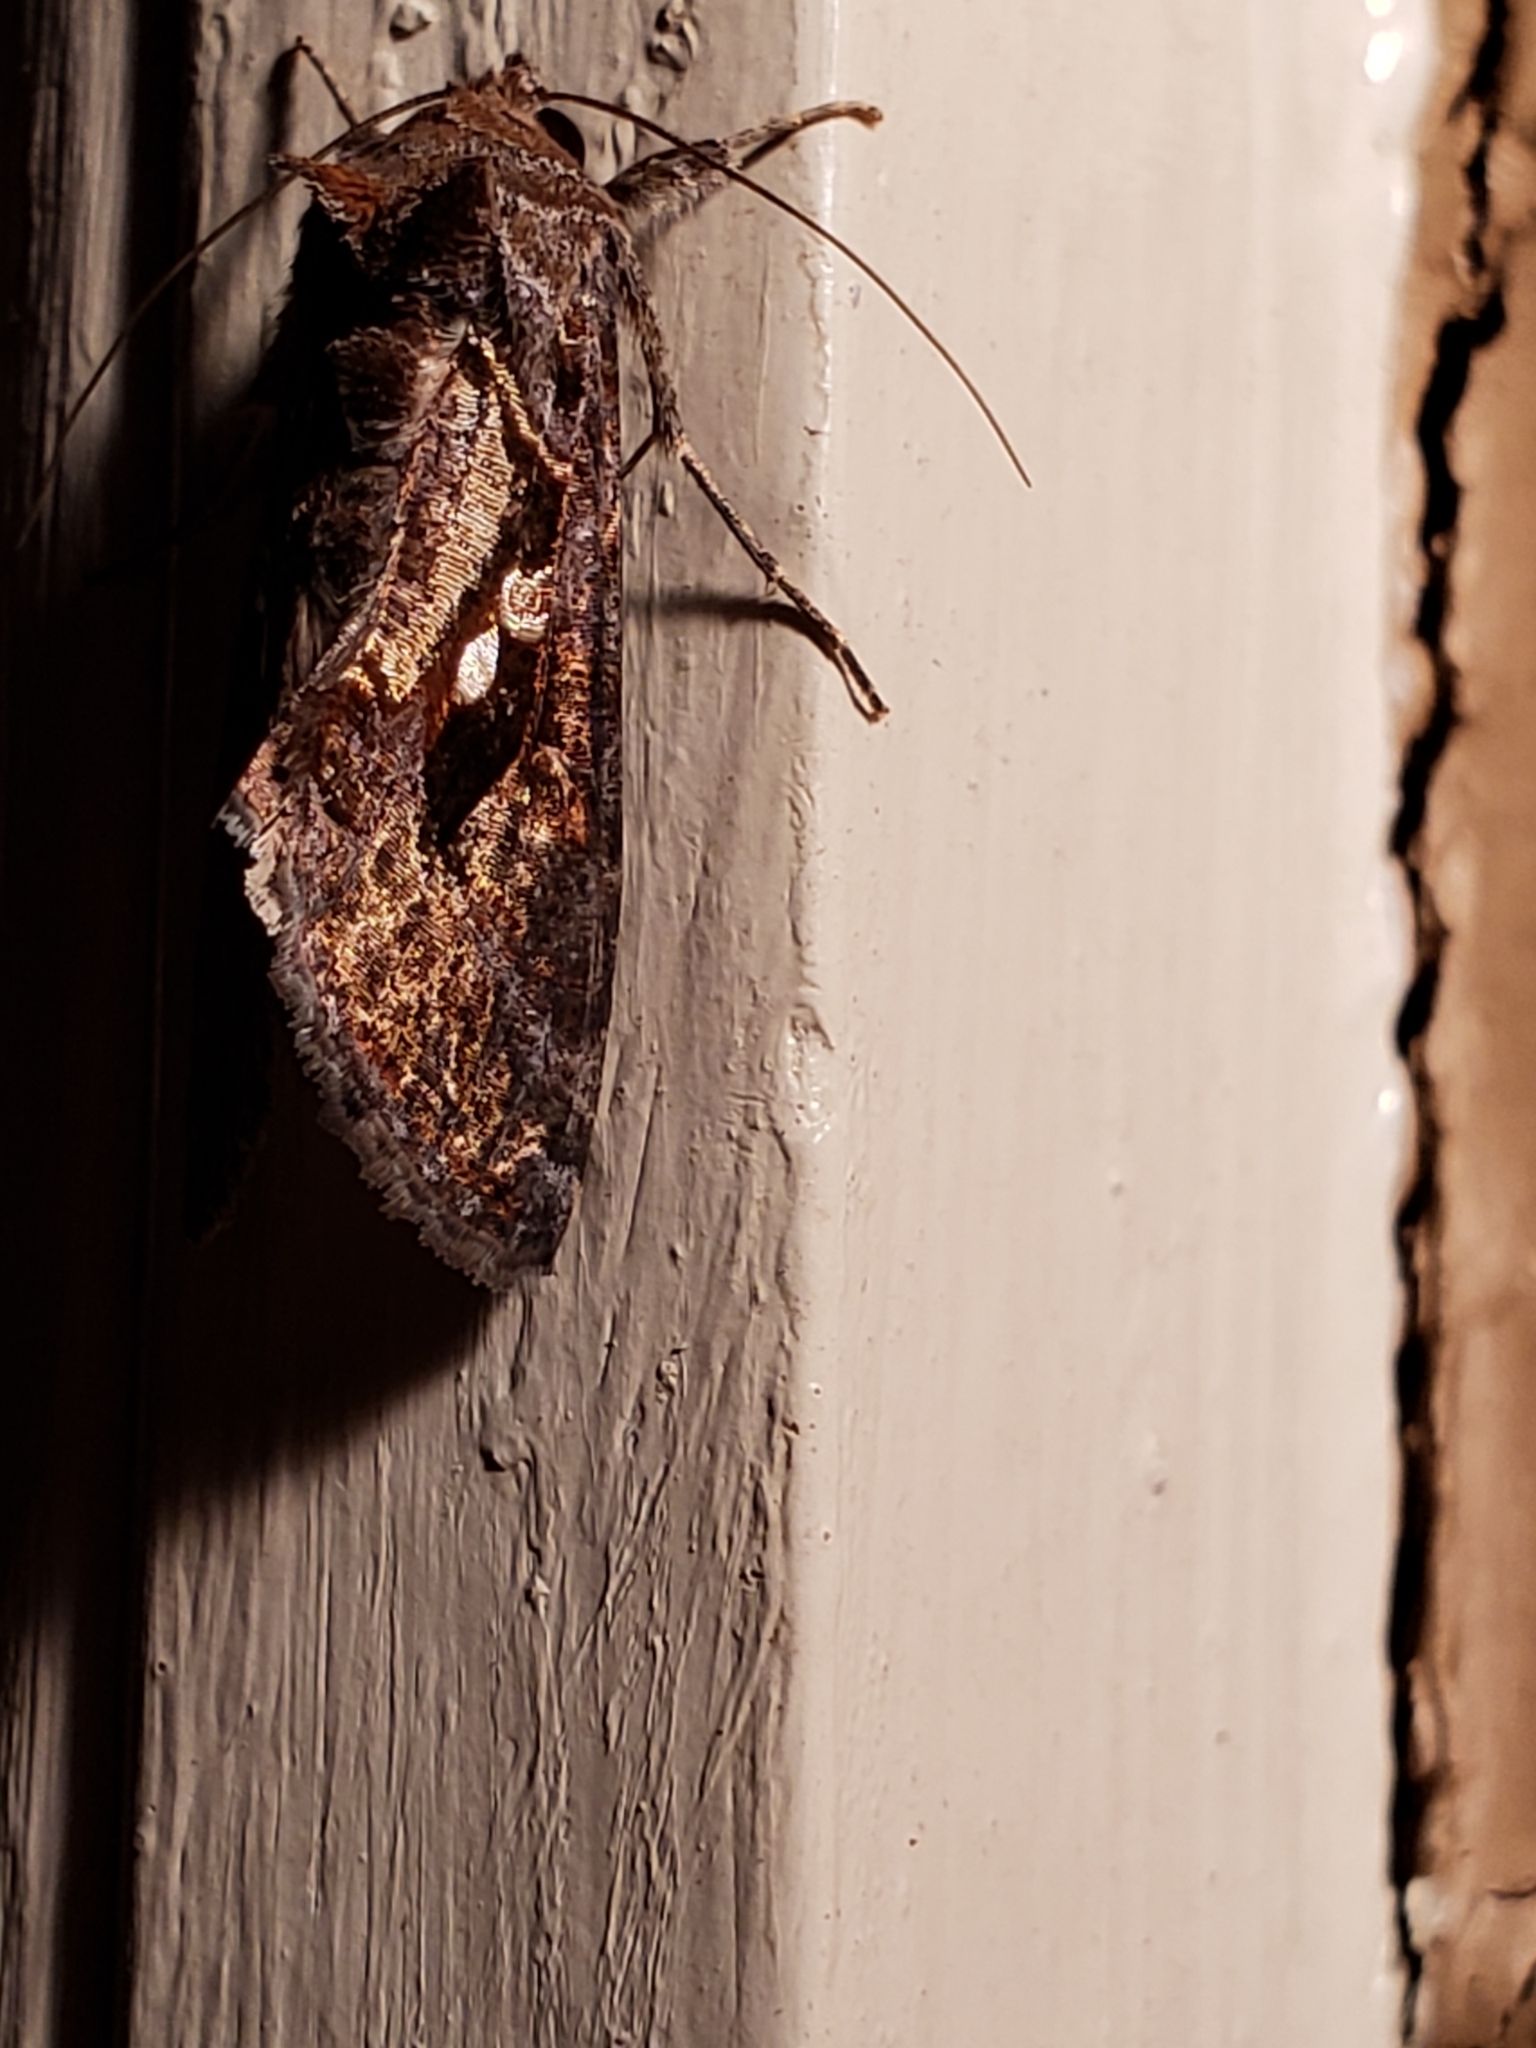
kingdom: Animalia
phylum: Arthropoda
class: Insecta
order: Lepidoptera
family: Noctuidae
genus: Chrysodeixis
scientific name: Chrysodeixis includens
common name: Cutworm moth
